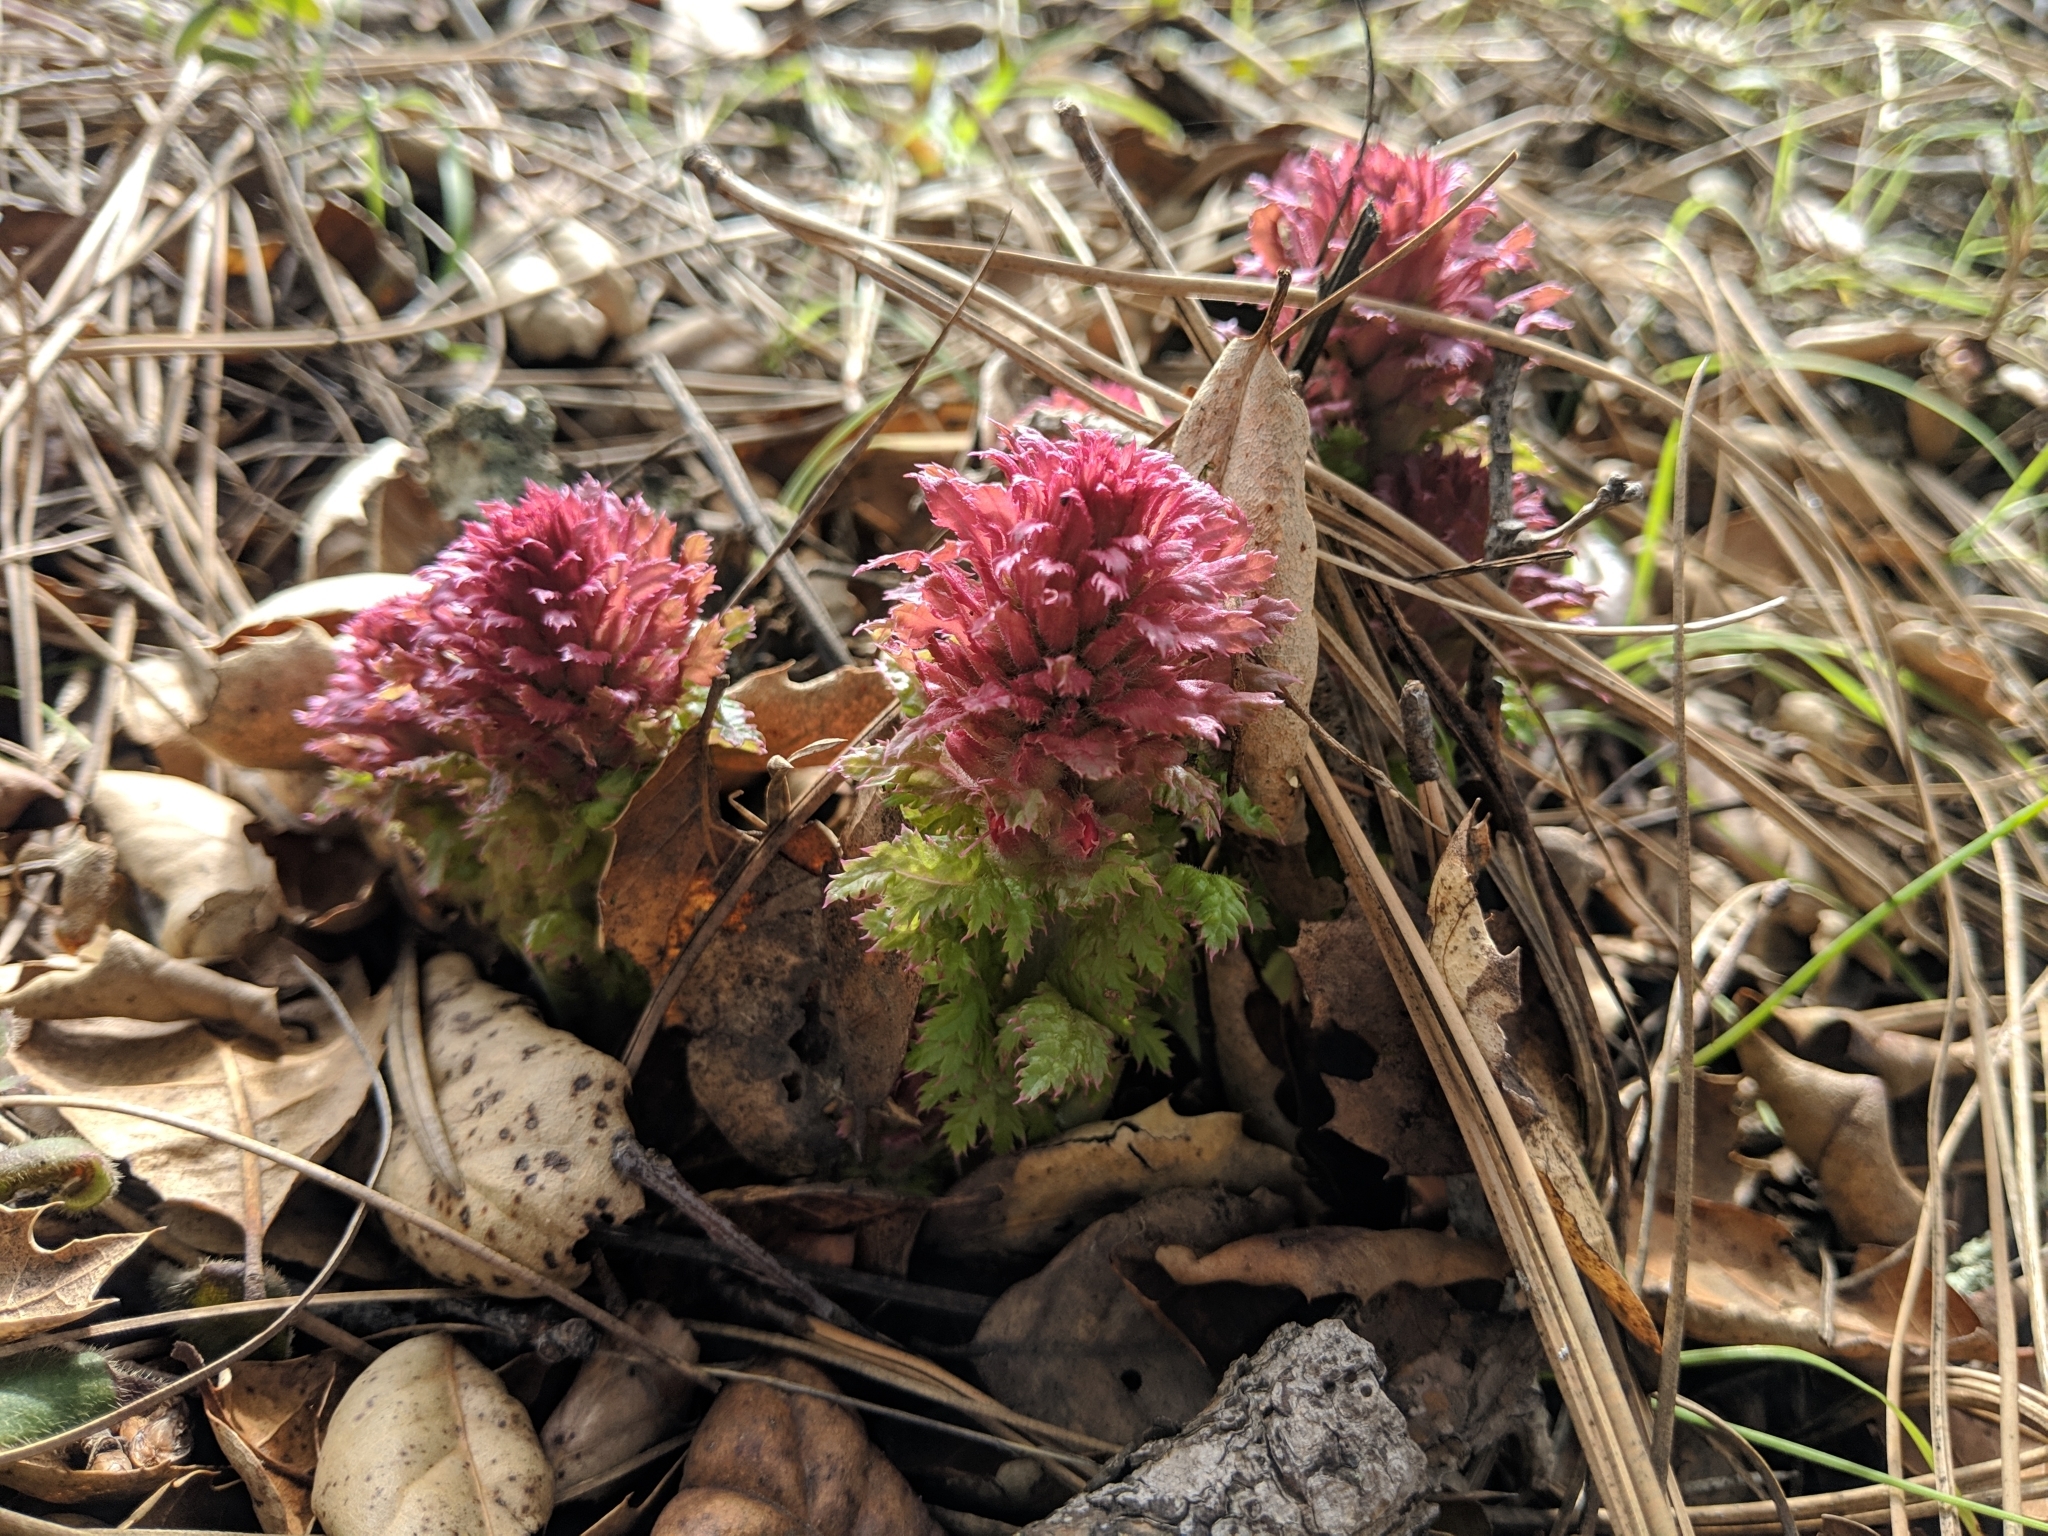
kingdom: Plantae
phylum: Tracheophyta
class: Magnoliopsida
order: Lamiales
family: Orobanchaceae
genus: Pedicularis
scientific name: Pedicularis densiflora
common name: Indian warrior
